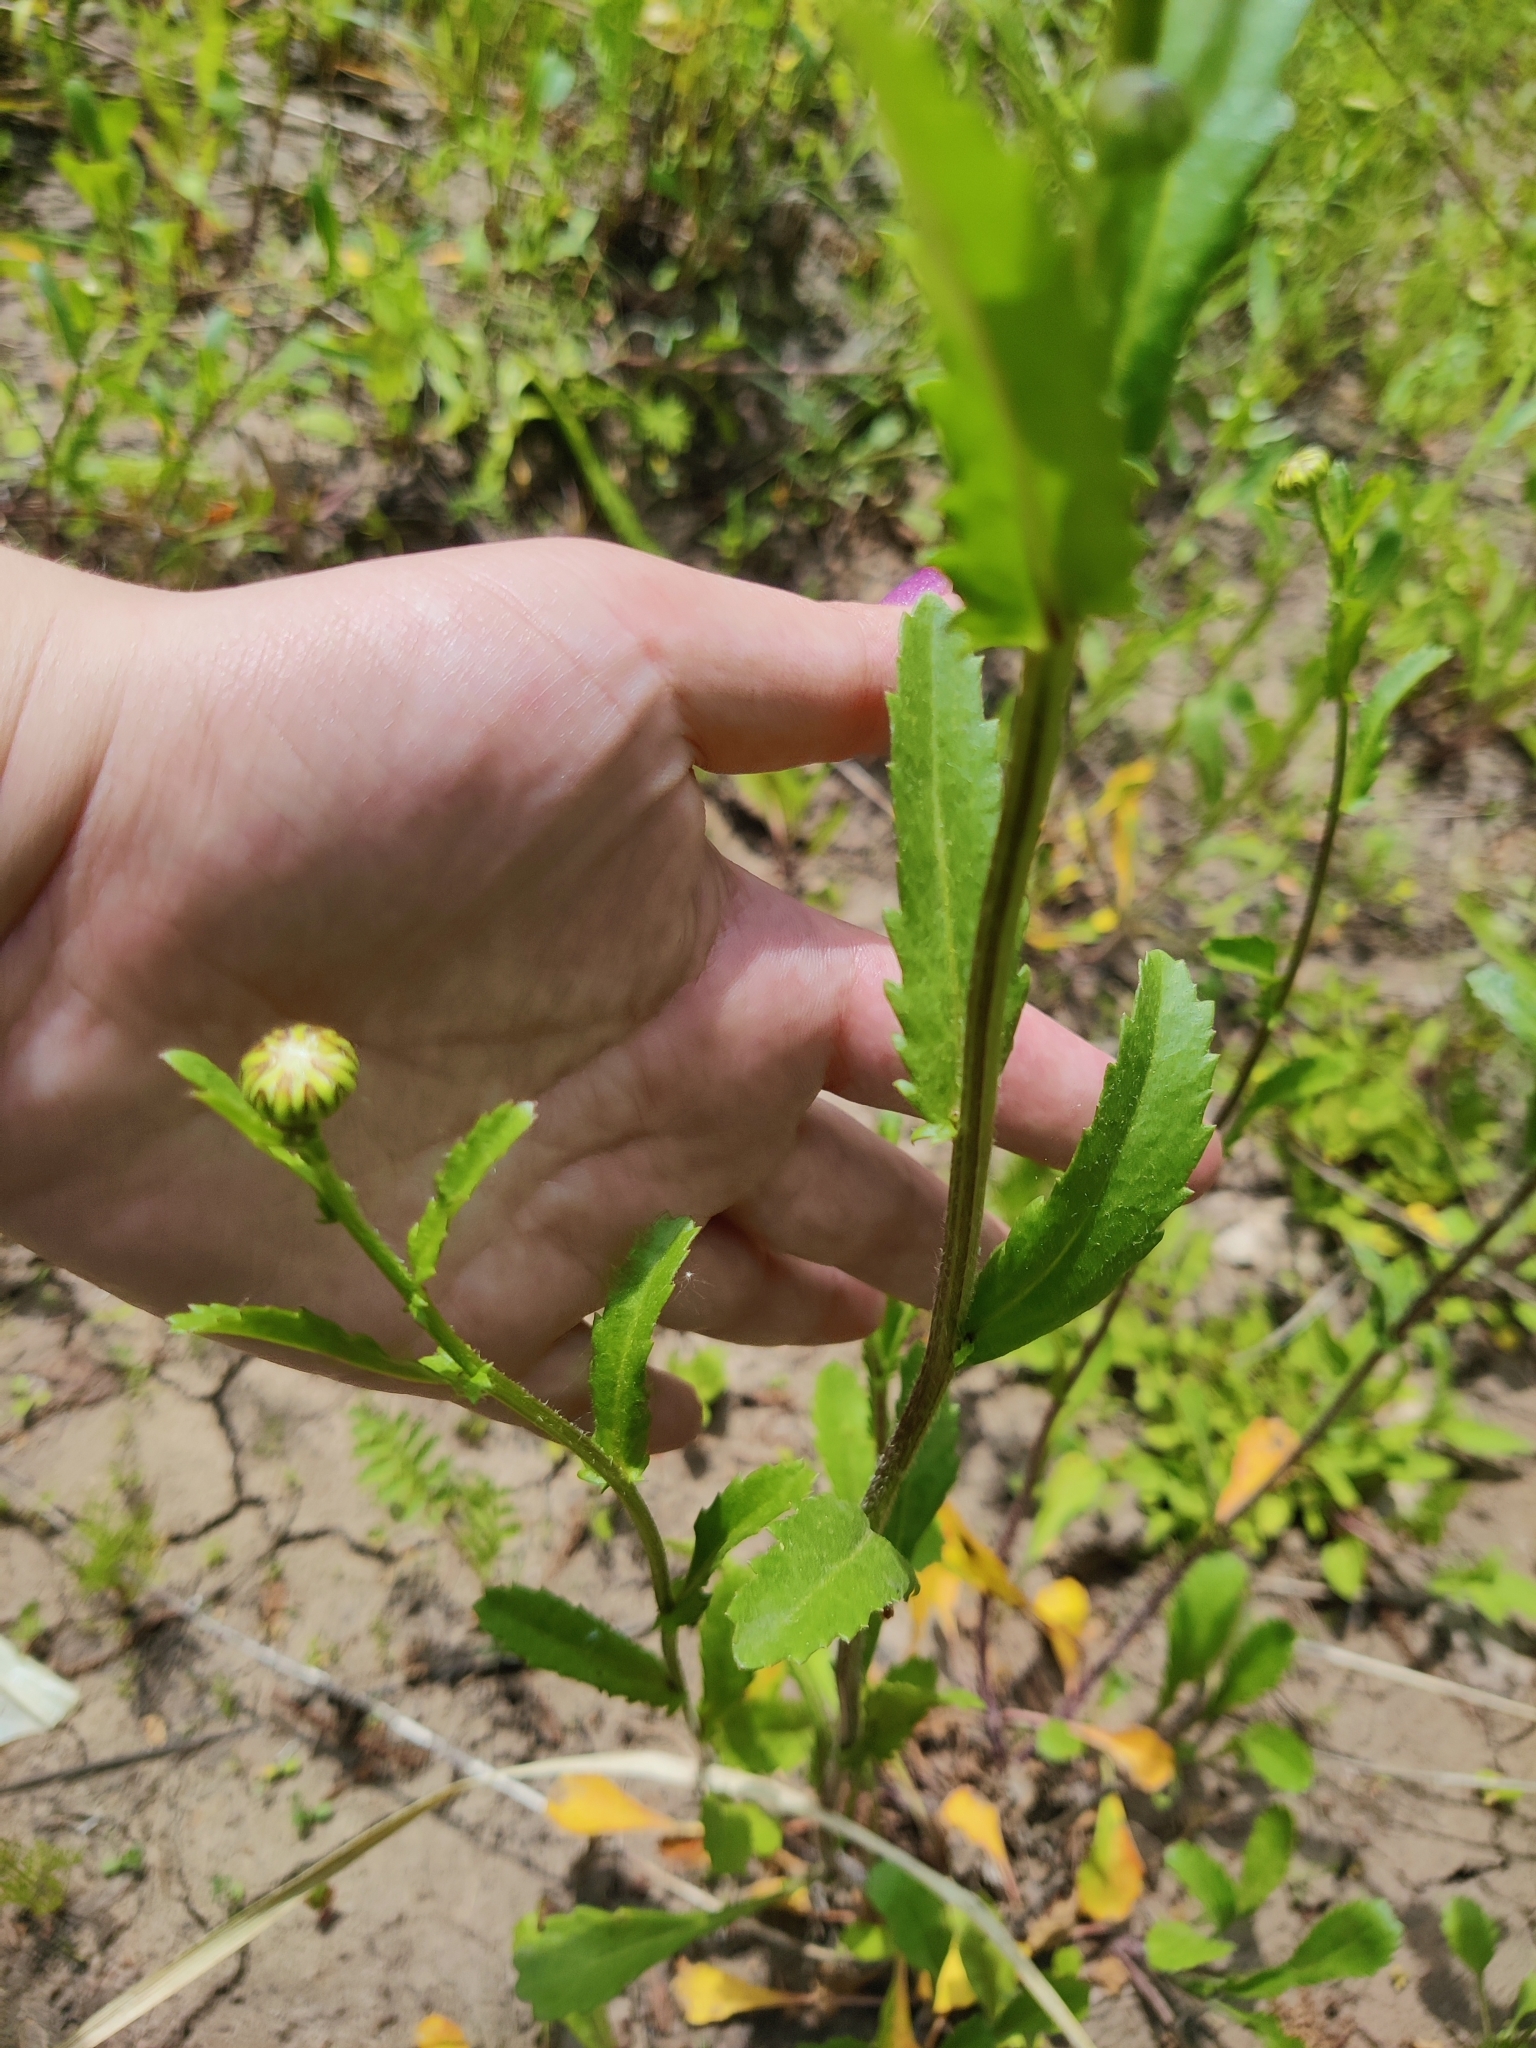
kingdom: Plantae
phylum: Tracheophyta
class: Magnoliopsida
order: Asterales
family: Asteraceae
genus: Leucanthemum
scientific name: Leucanthemum vulgare
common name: Oxeye daisy
